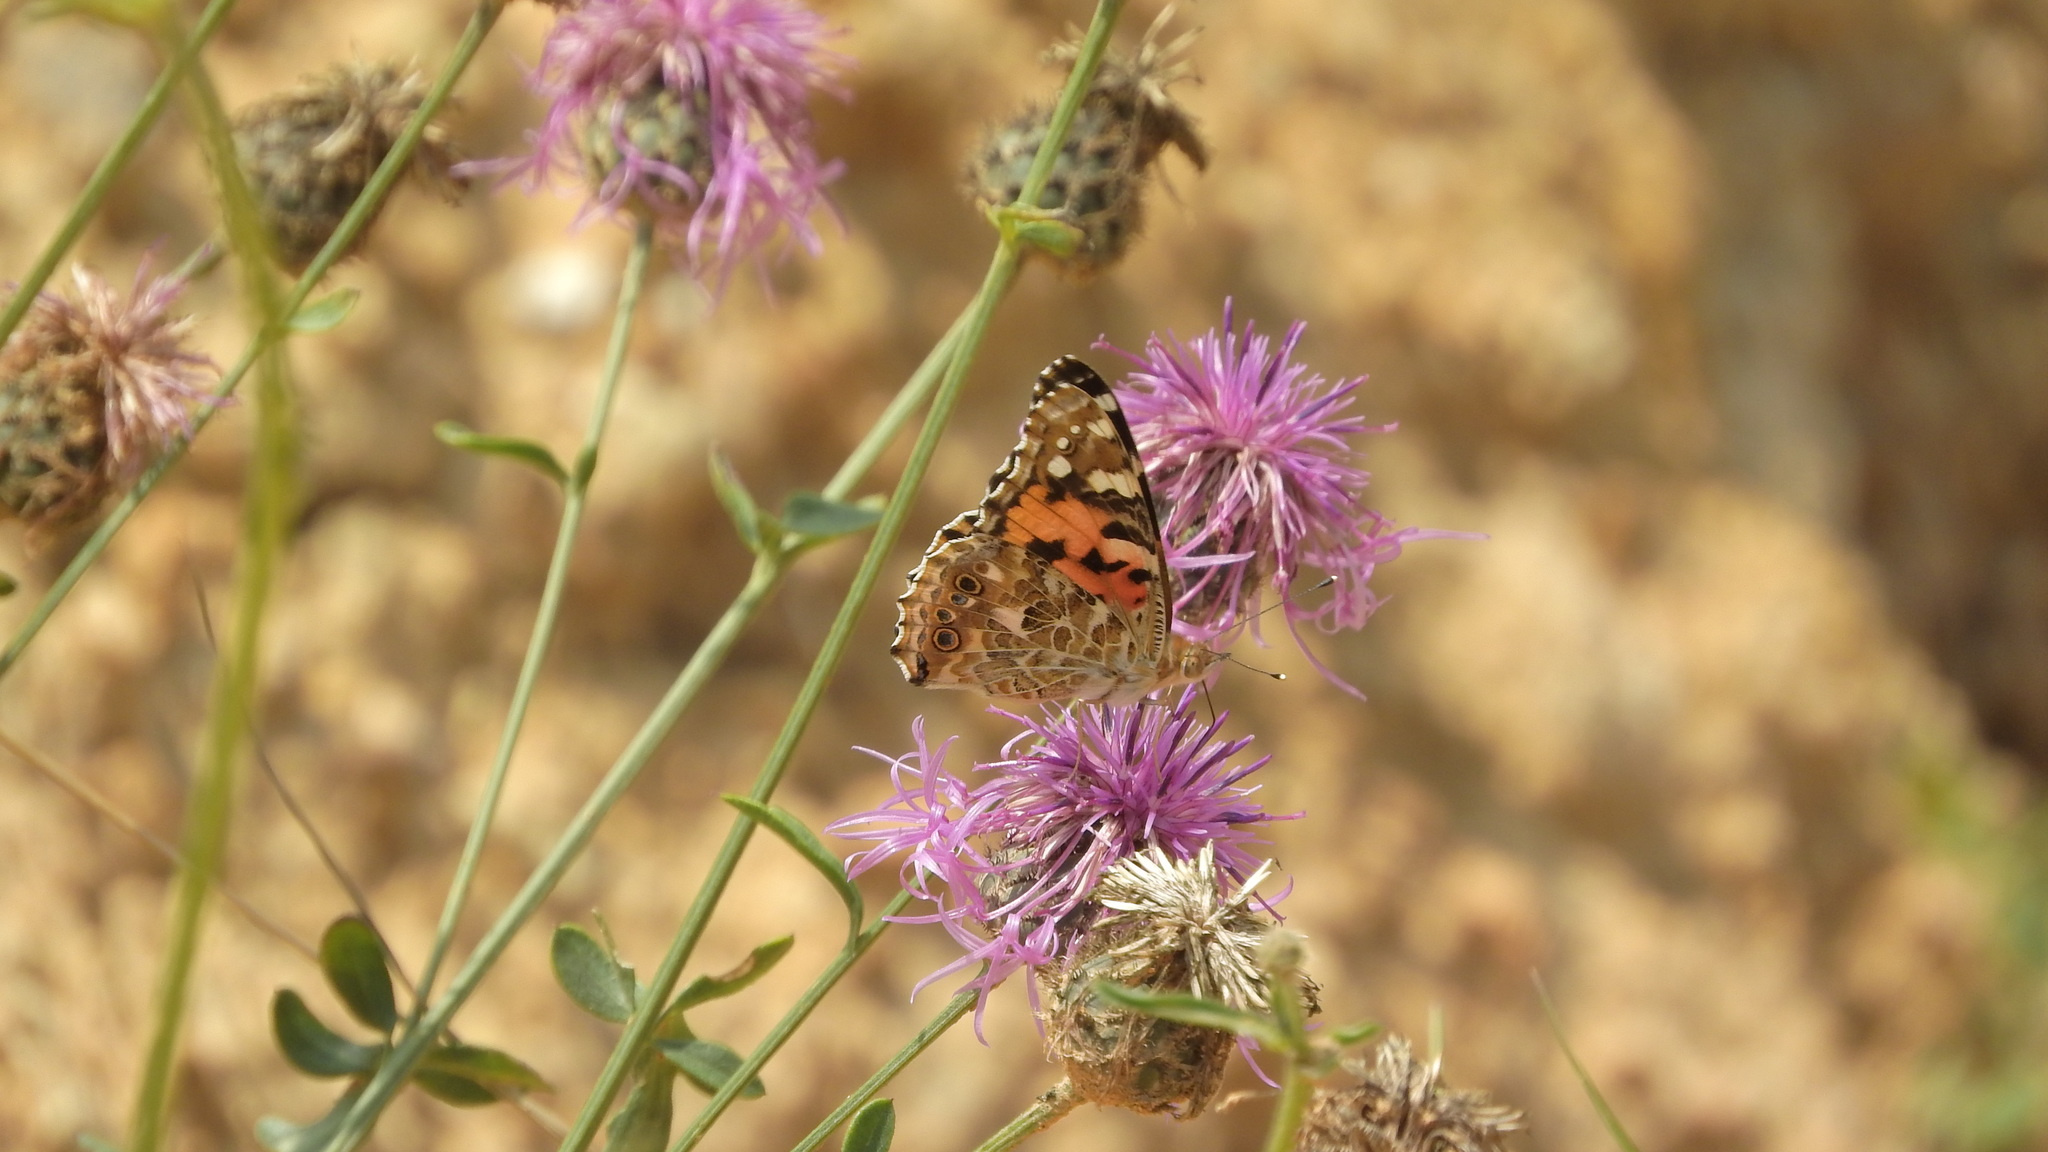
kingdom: Animalia
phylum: Arthropoda
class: Insecta
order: Lepidoptera
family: Nymphalidae
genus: Vanessa
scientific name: Vanessa cardui
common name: Painted lady
